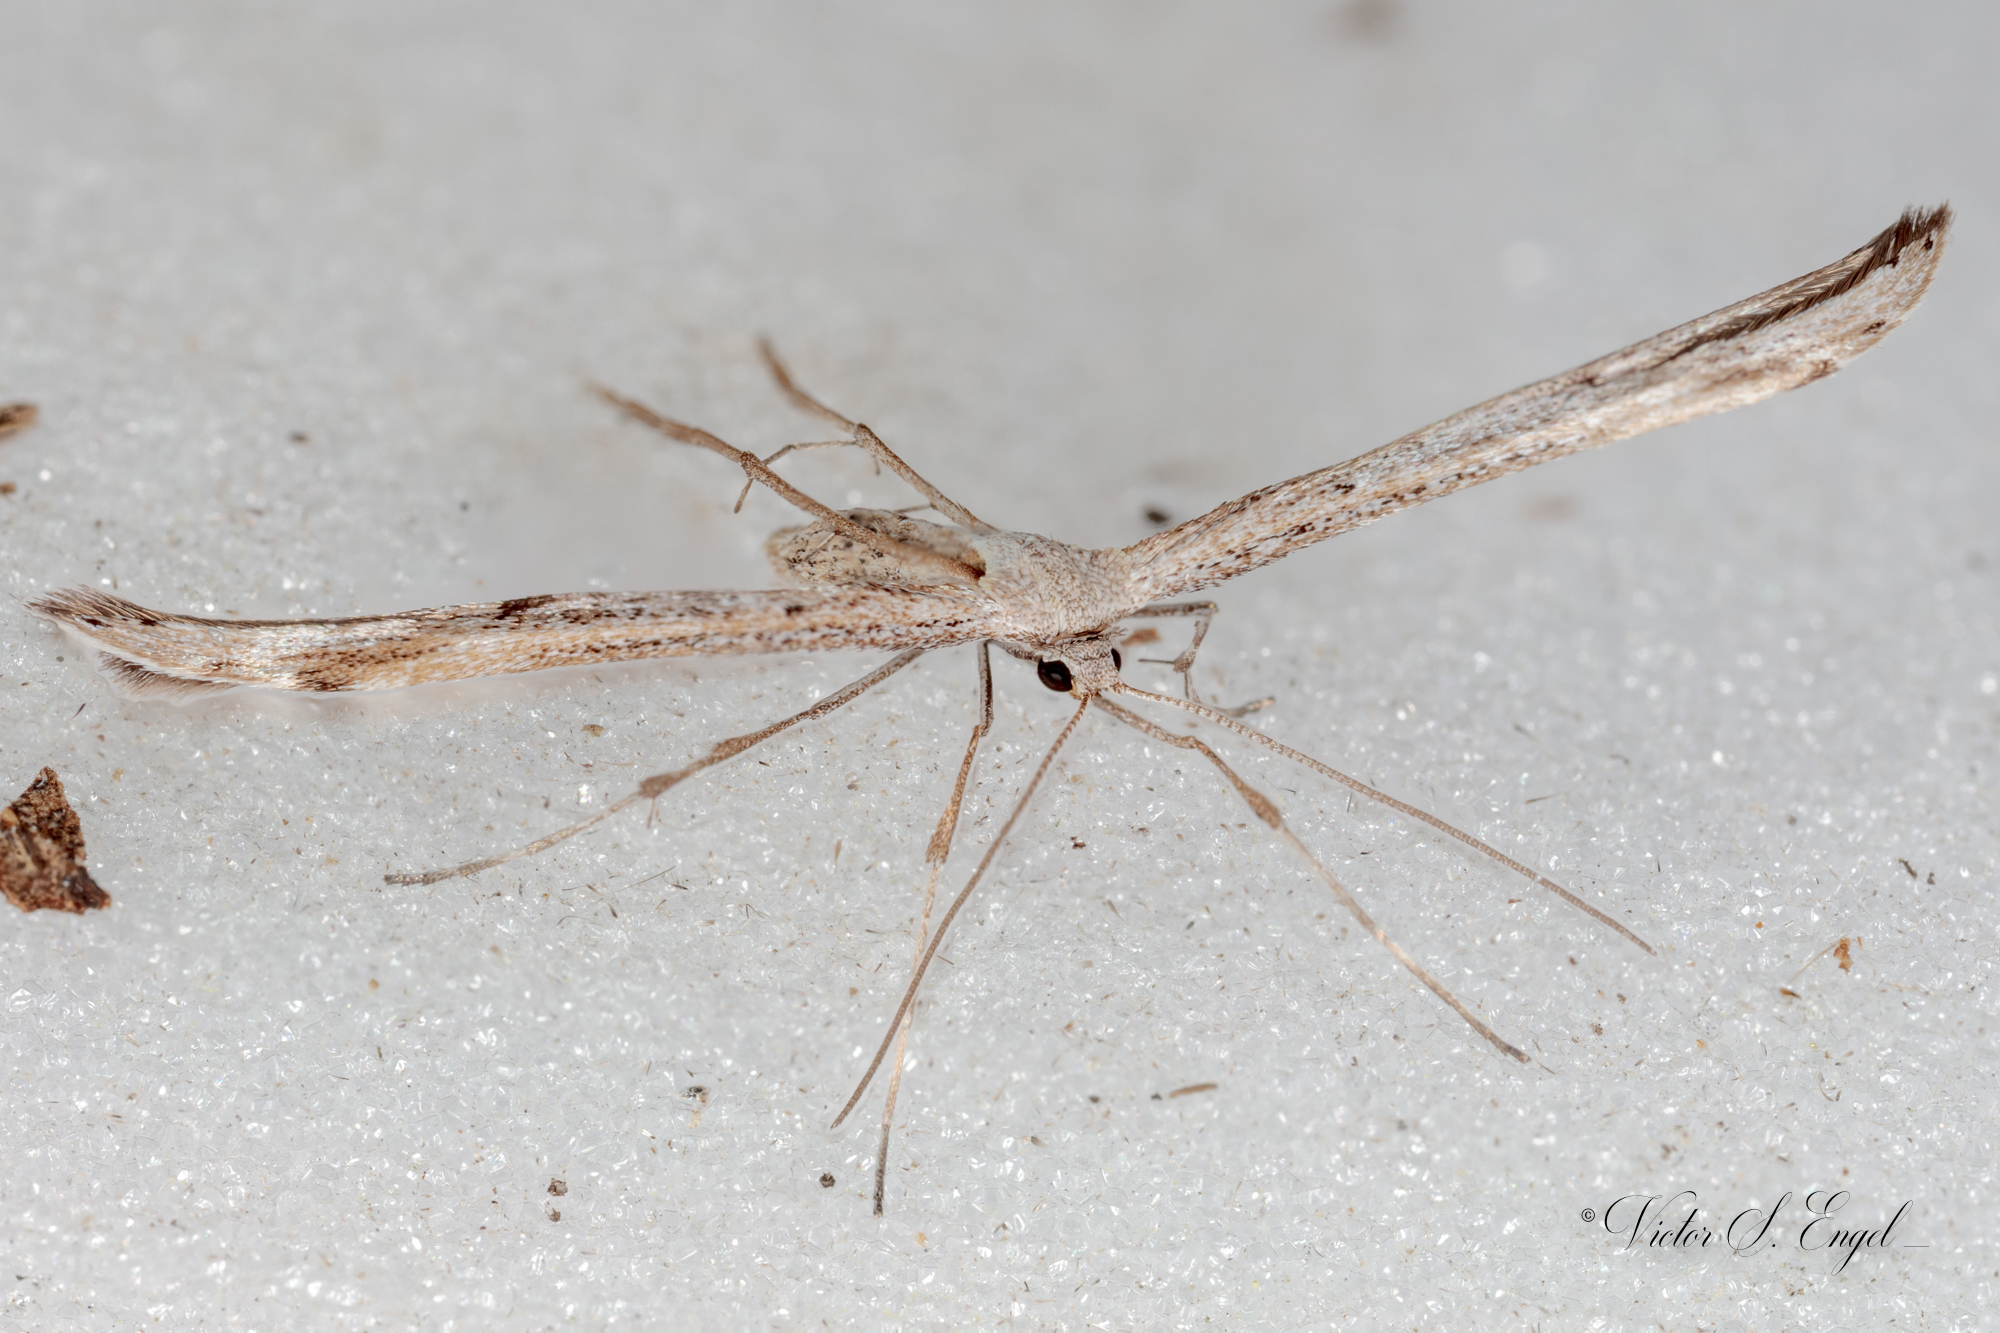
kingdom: Animalia
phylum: Arthropoda
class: Insecta
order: Lepidoptera
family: Pterophoridae
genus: Emmelina
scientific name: Emmelina monodactyla
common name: Common plume
